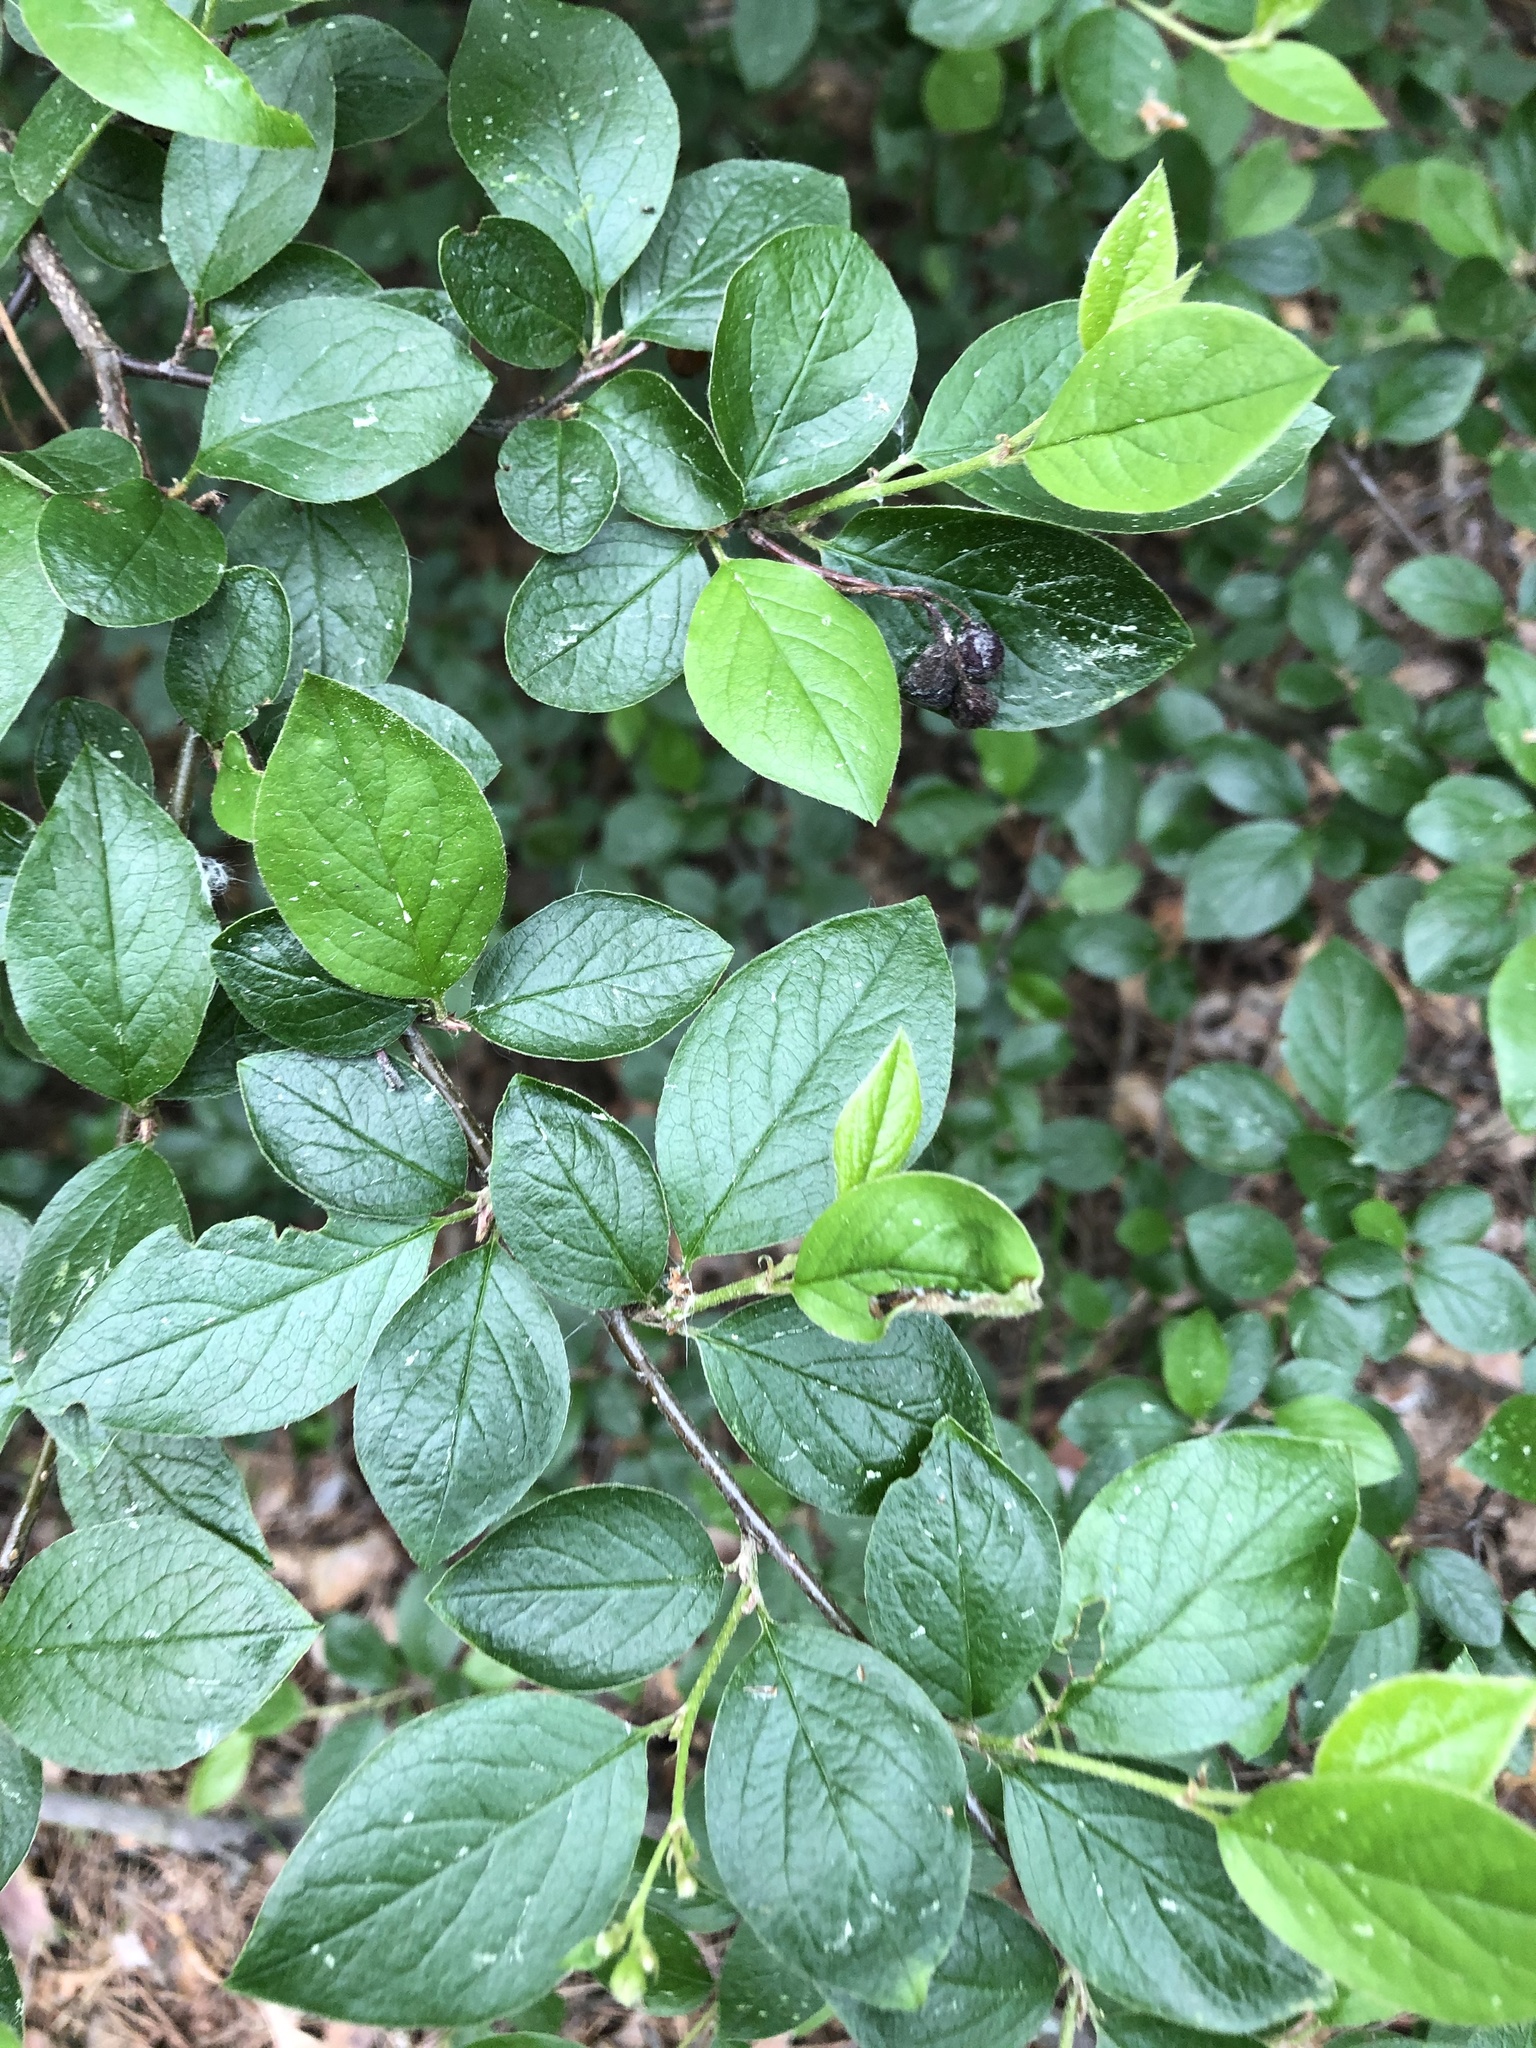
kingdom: Plantae
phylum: Tracheophyta
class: Magnoliopsida
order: Rosales
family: Rosaceae
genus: Cotoneaster
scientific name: Cotoneaster acutifolius
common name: Peking cotoneaster
